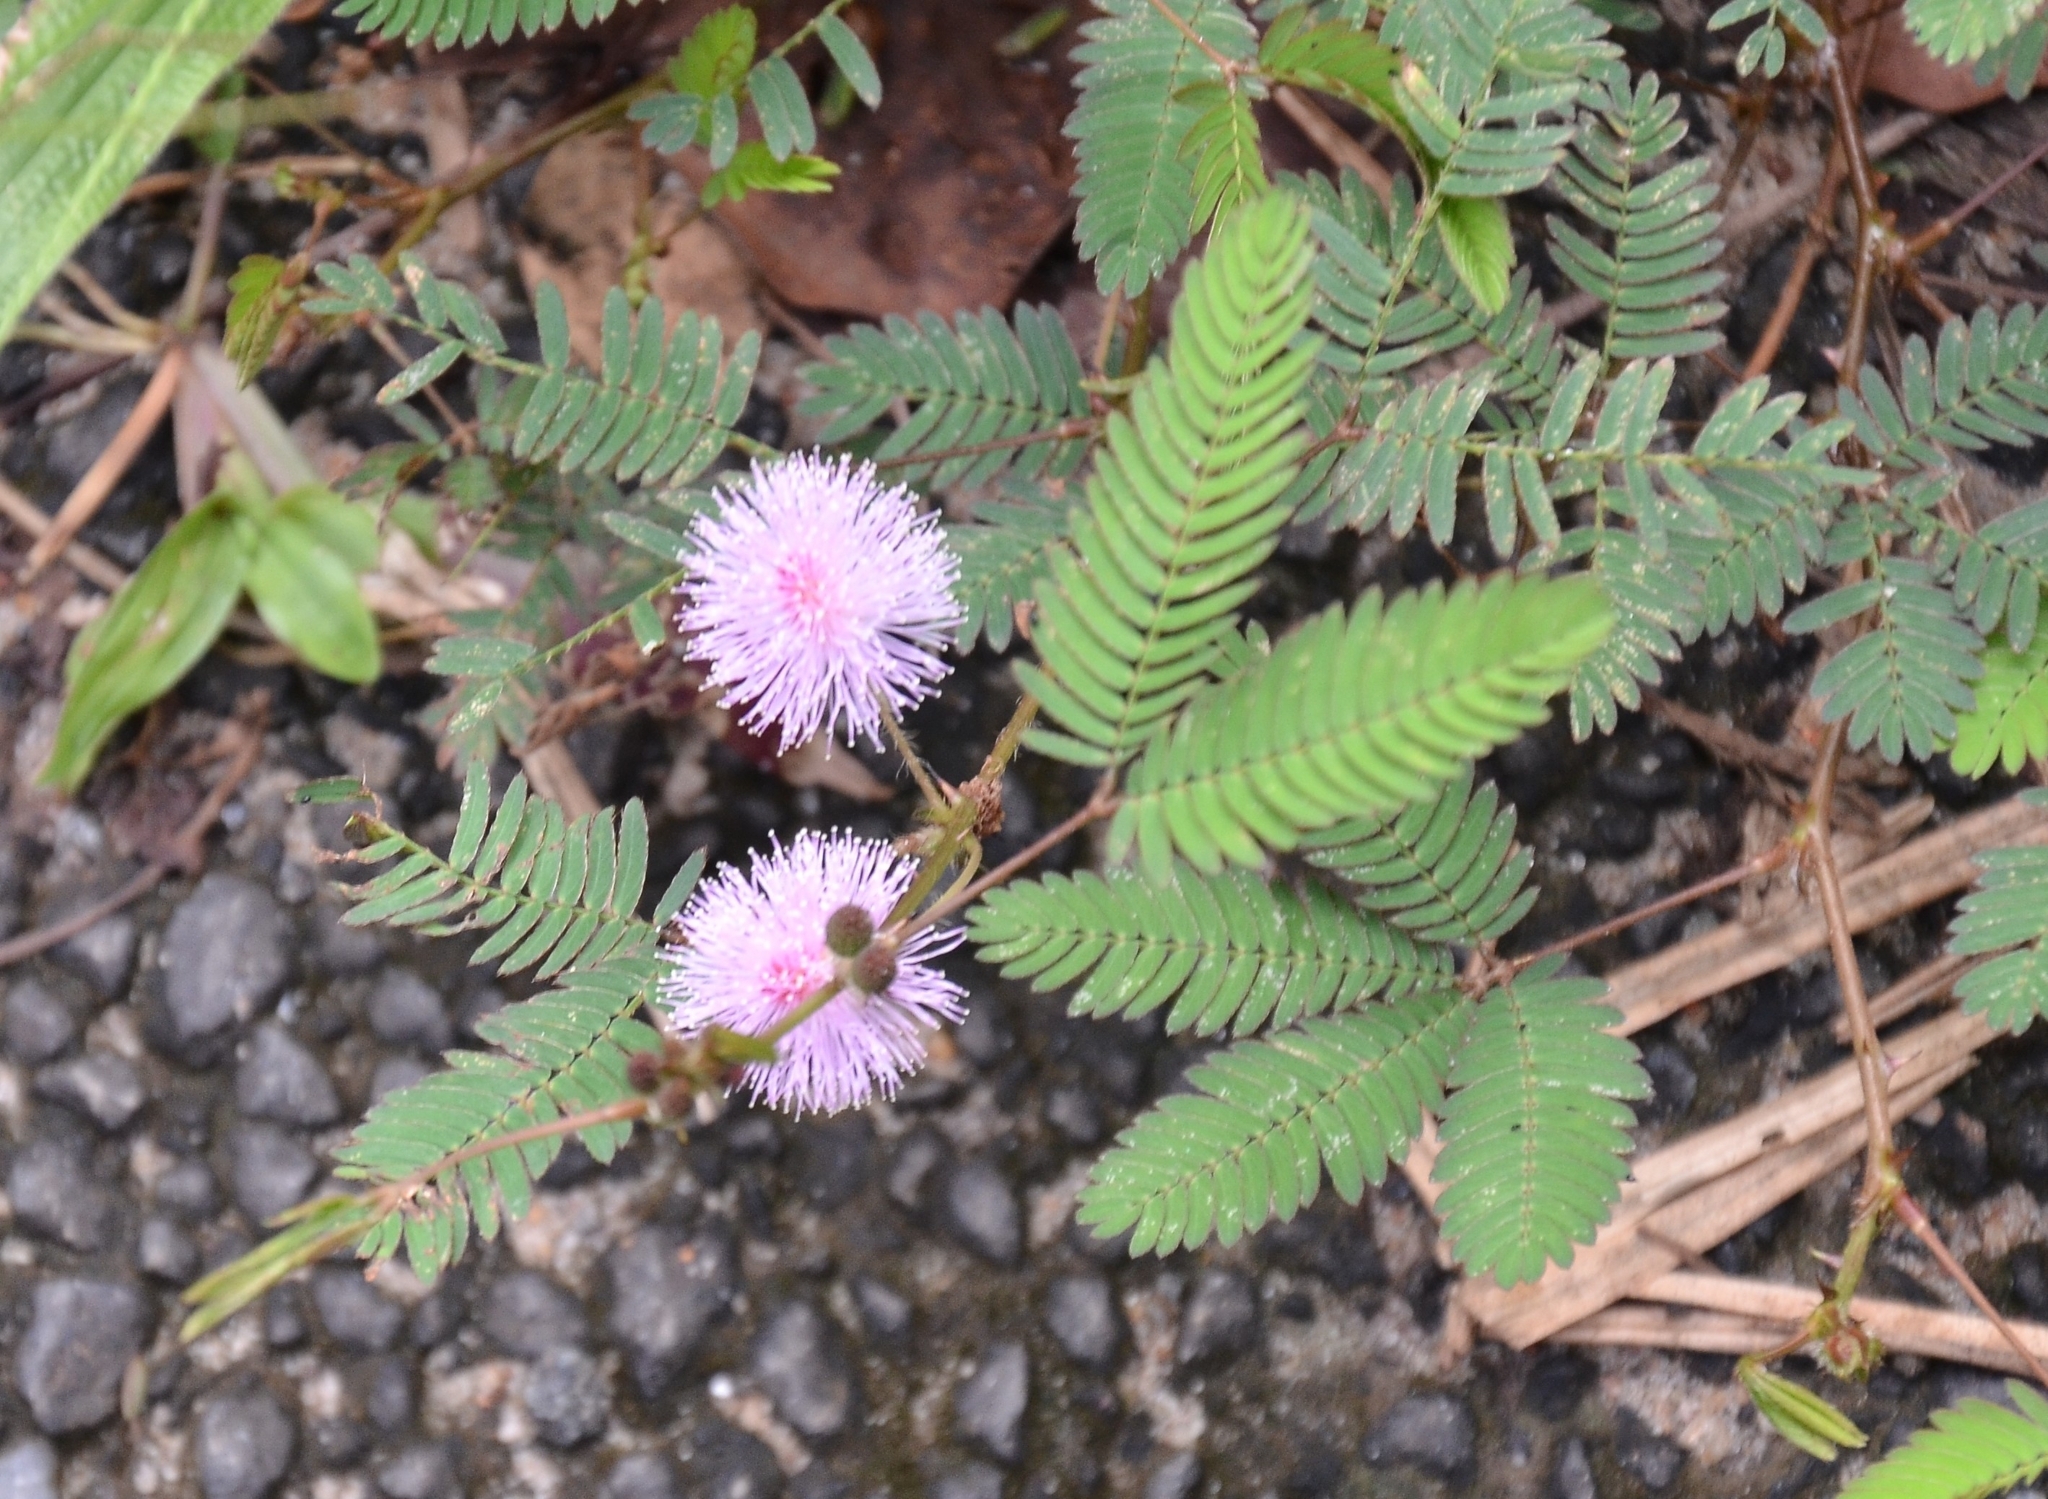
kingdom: Plantae
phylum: Tracheophyta
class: Magnoliopsida
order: Fabales
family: Fabaceae
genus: Mimosa
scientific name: Mimosa pudica
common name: Sensitive plant
